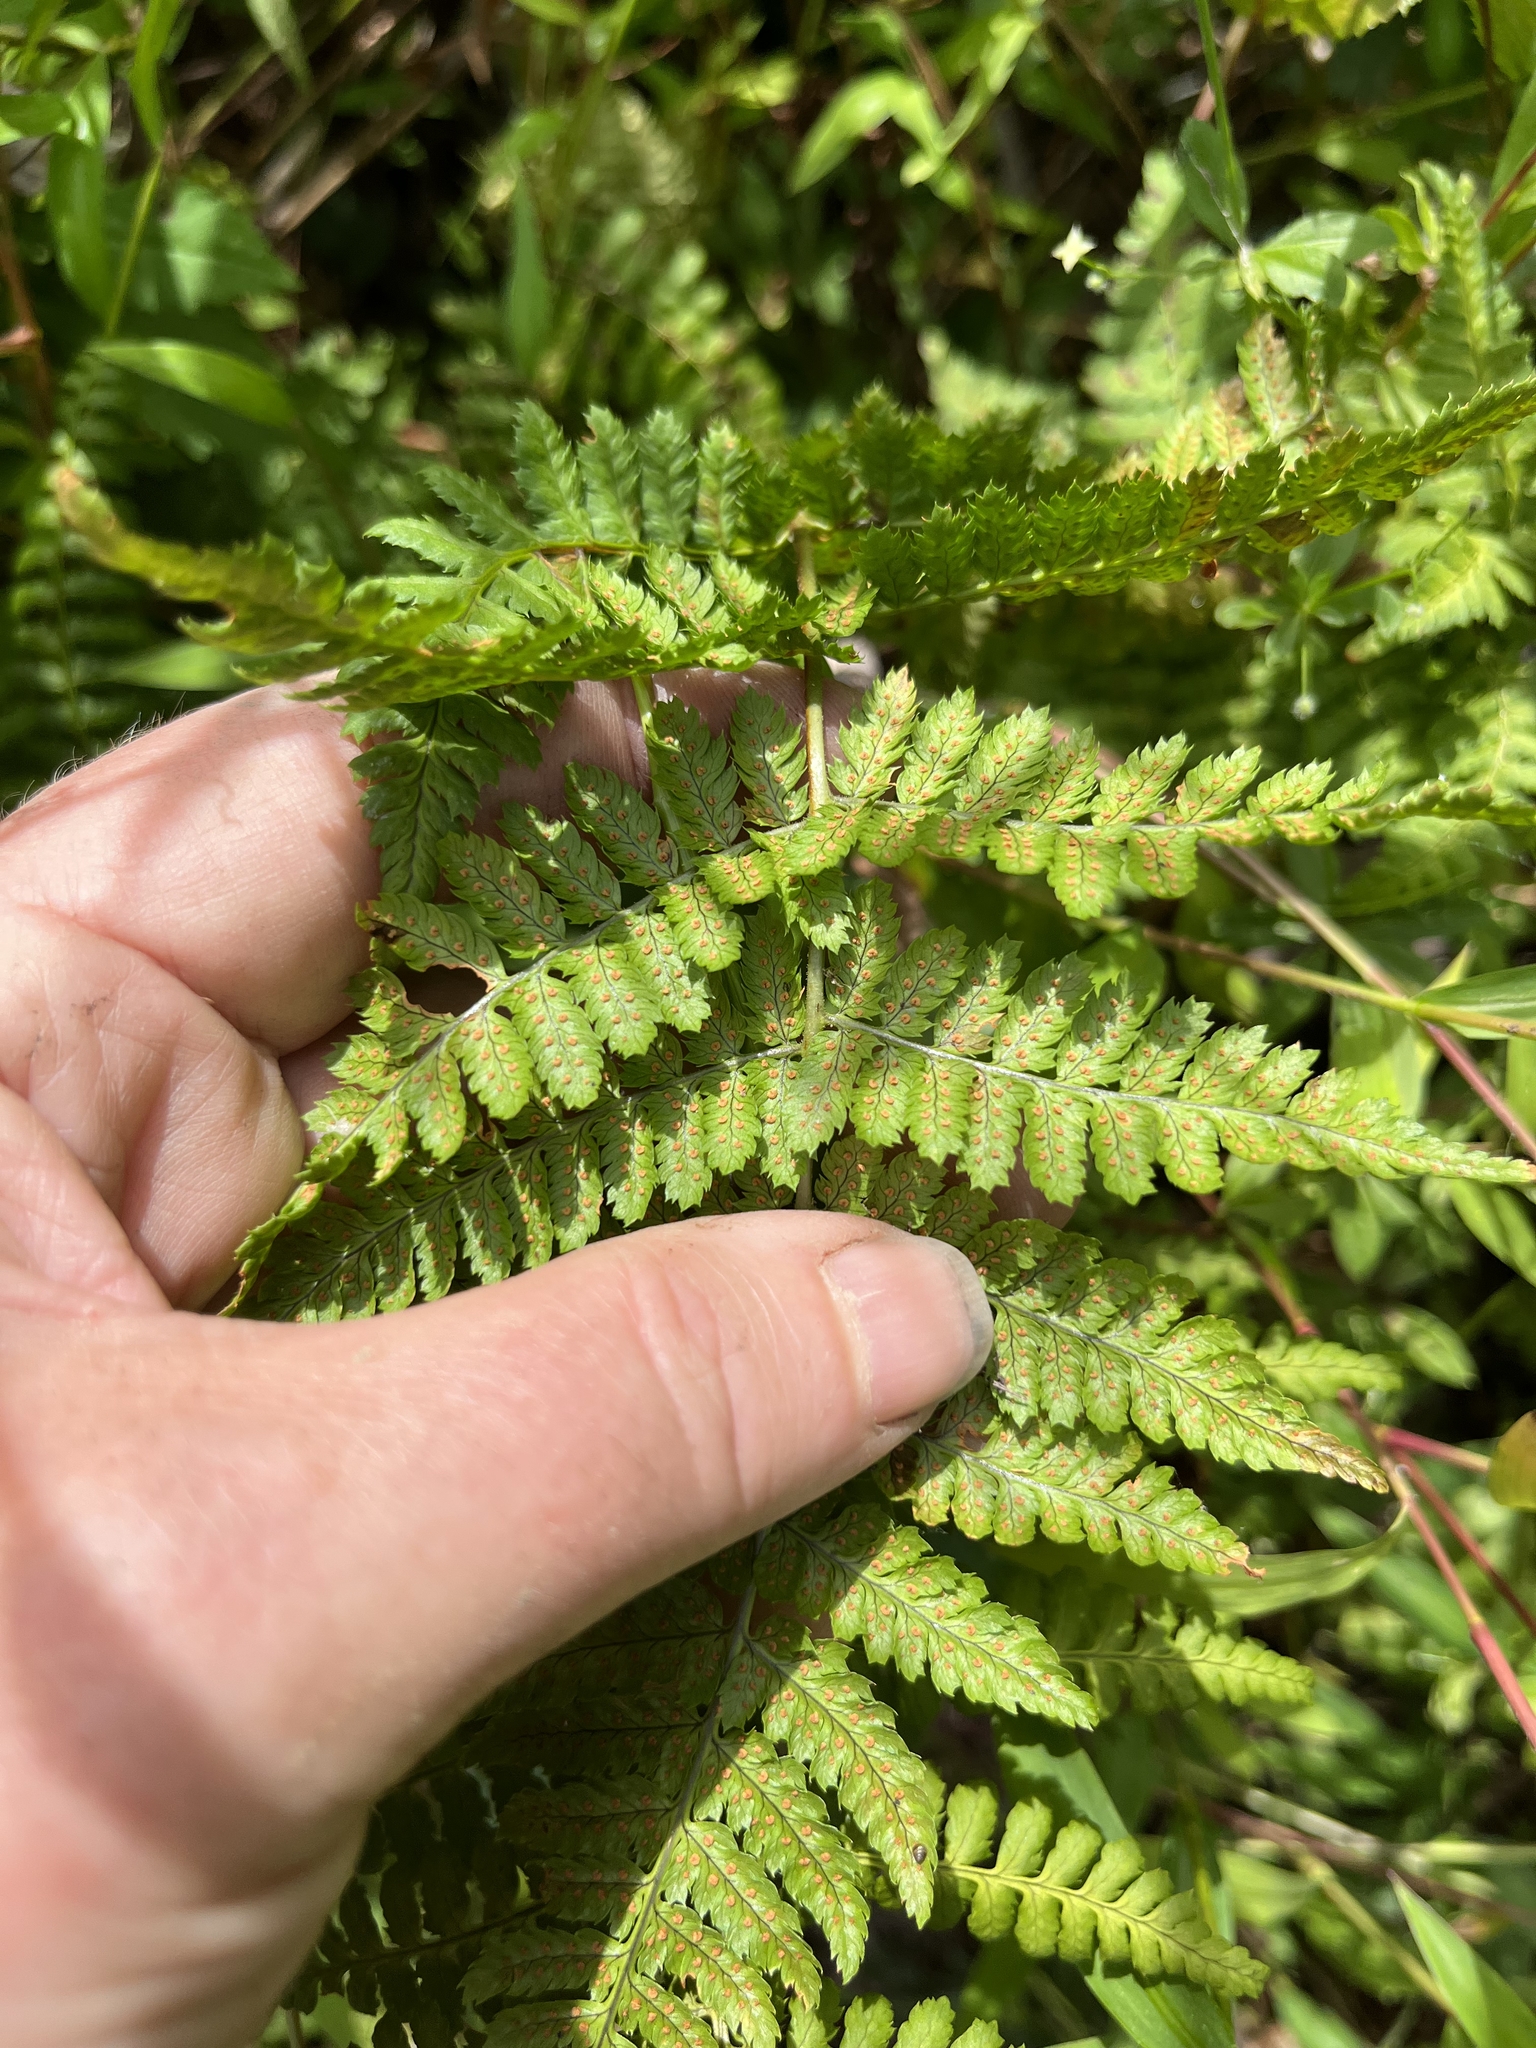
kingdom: Plantae
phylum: Tracheophyta
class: Polypodiopsida
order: Polypodiales
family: Dryopteridaceae
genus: Dryopteris
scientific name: Dryopteris intermedia
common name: Evergreen wood fern
